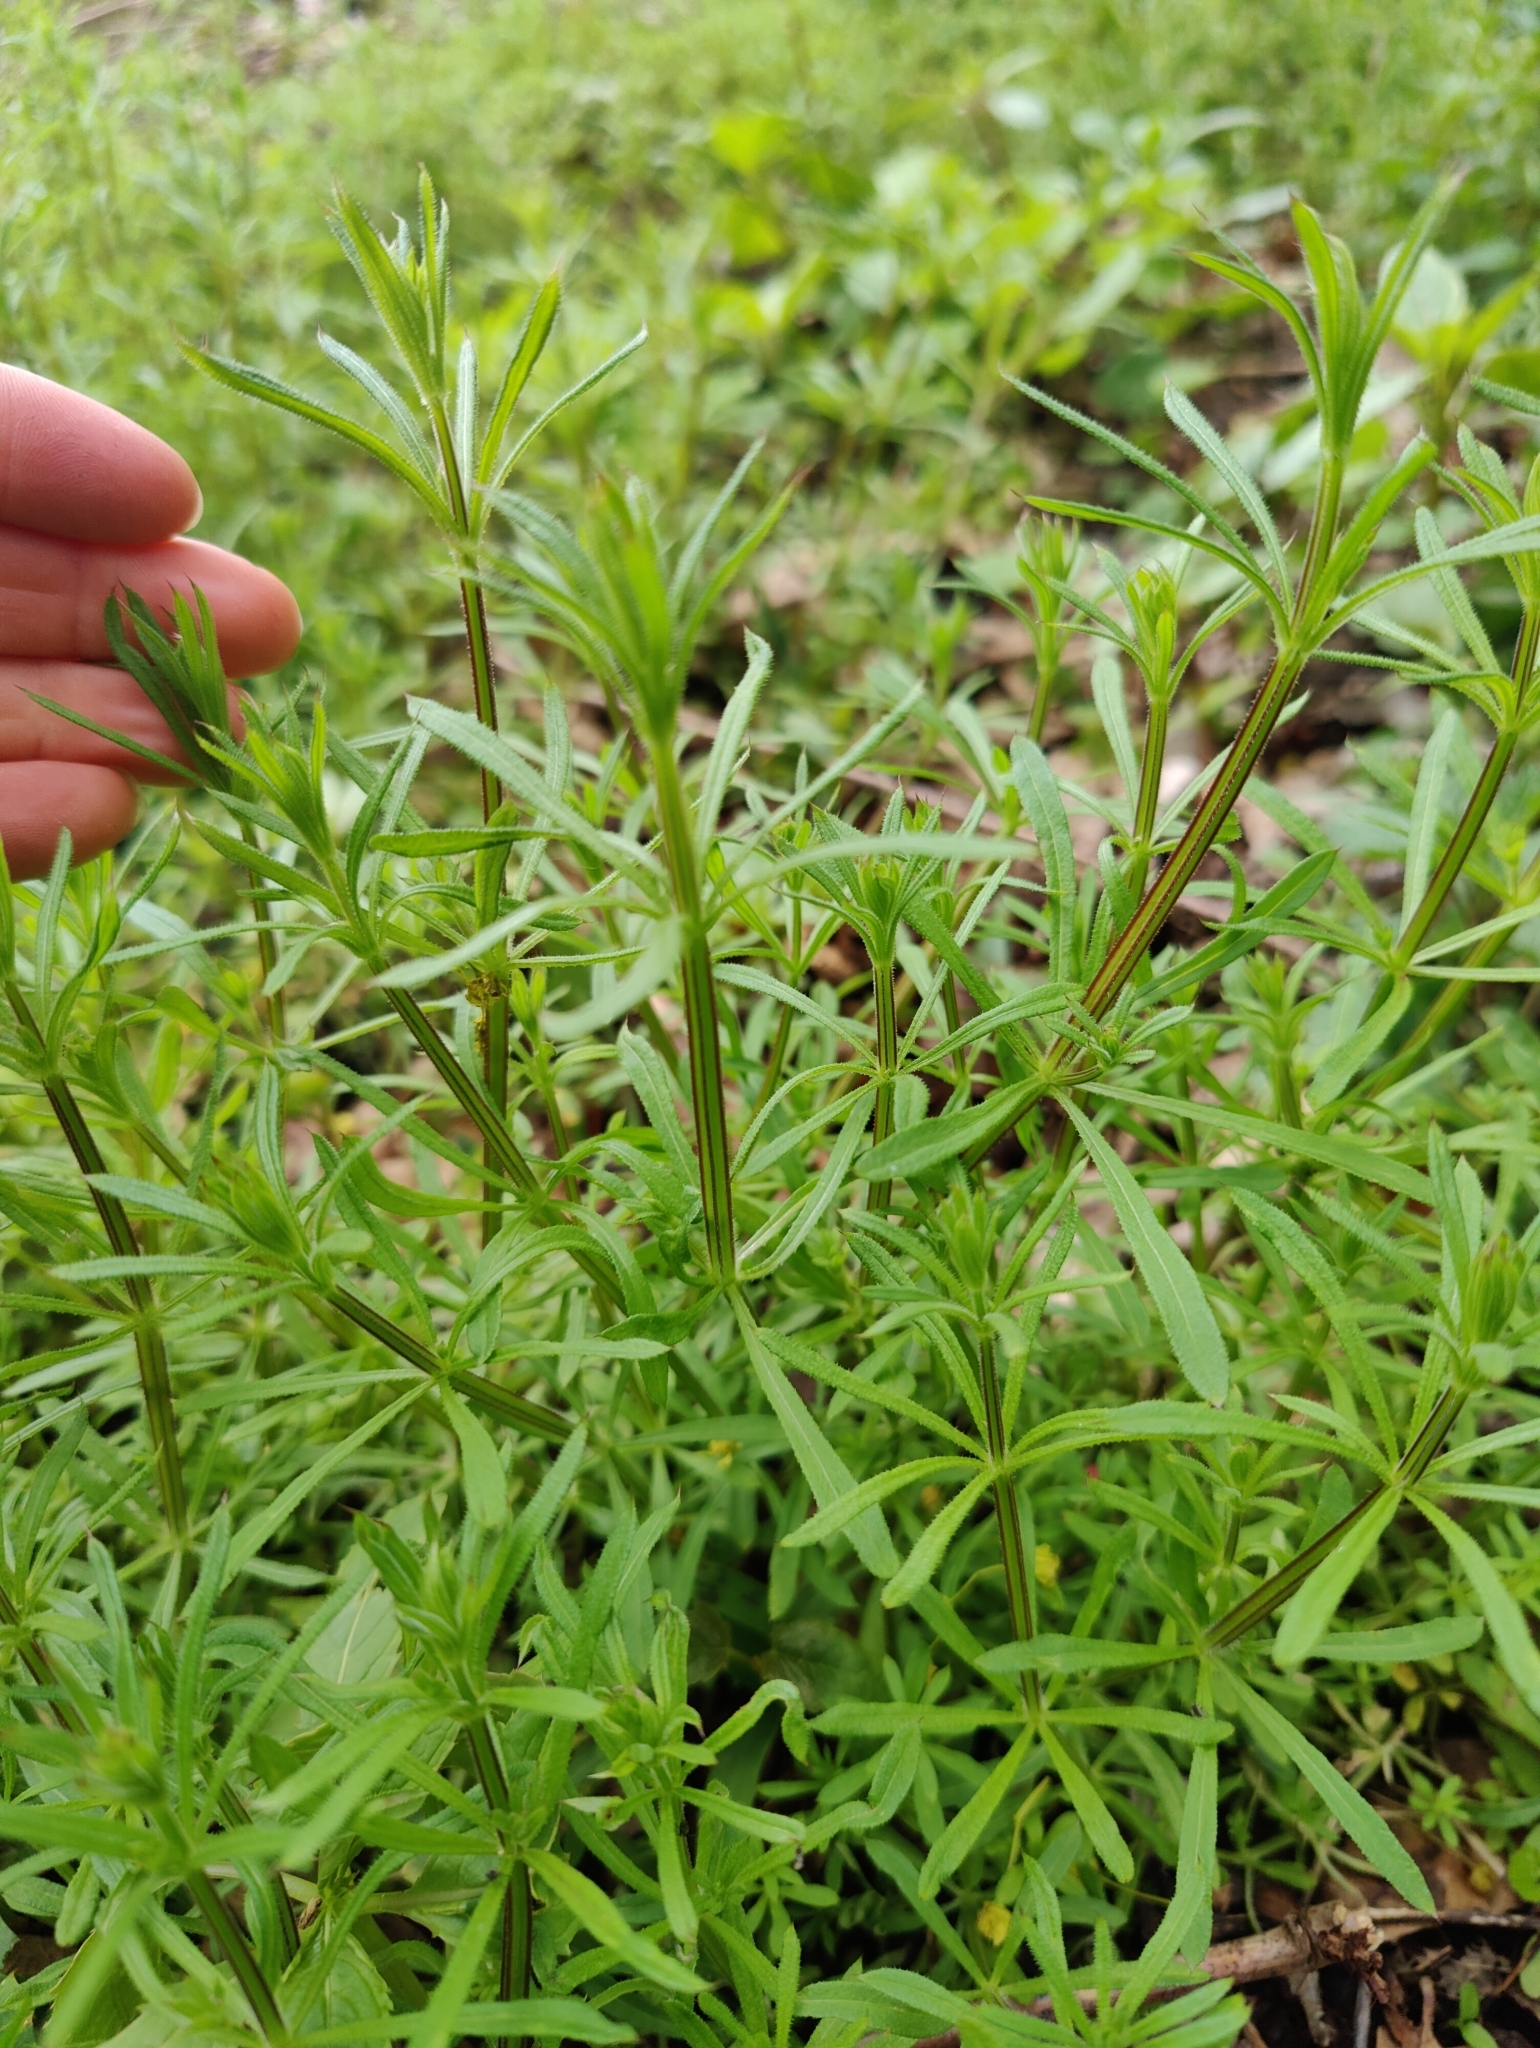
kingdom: Plantae
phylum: Tracheophyta
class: Magnoliopsida
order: Gentianales
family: Rubiaceae
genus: Galium
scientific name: Galium aparine
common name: Cleavers
